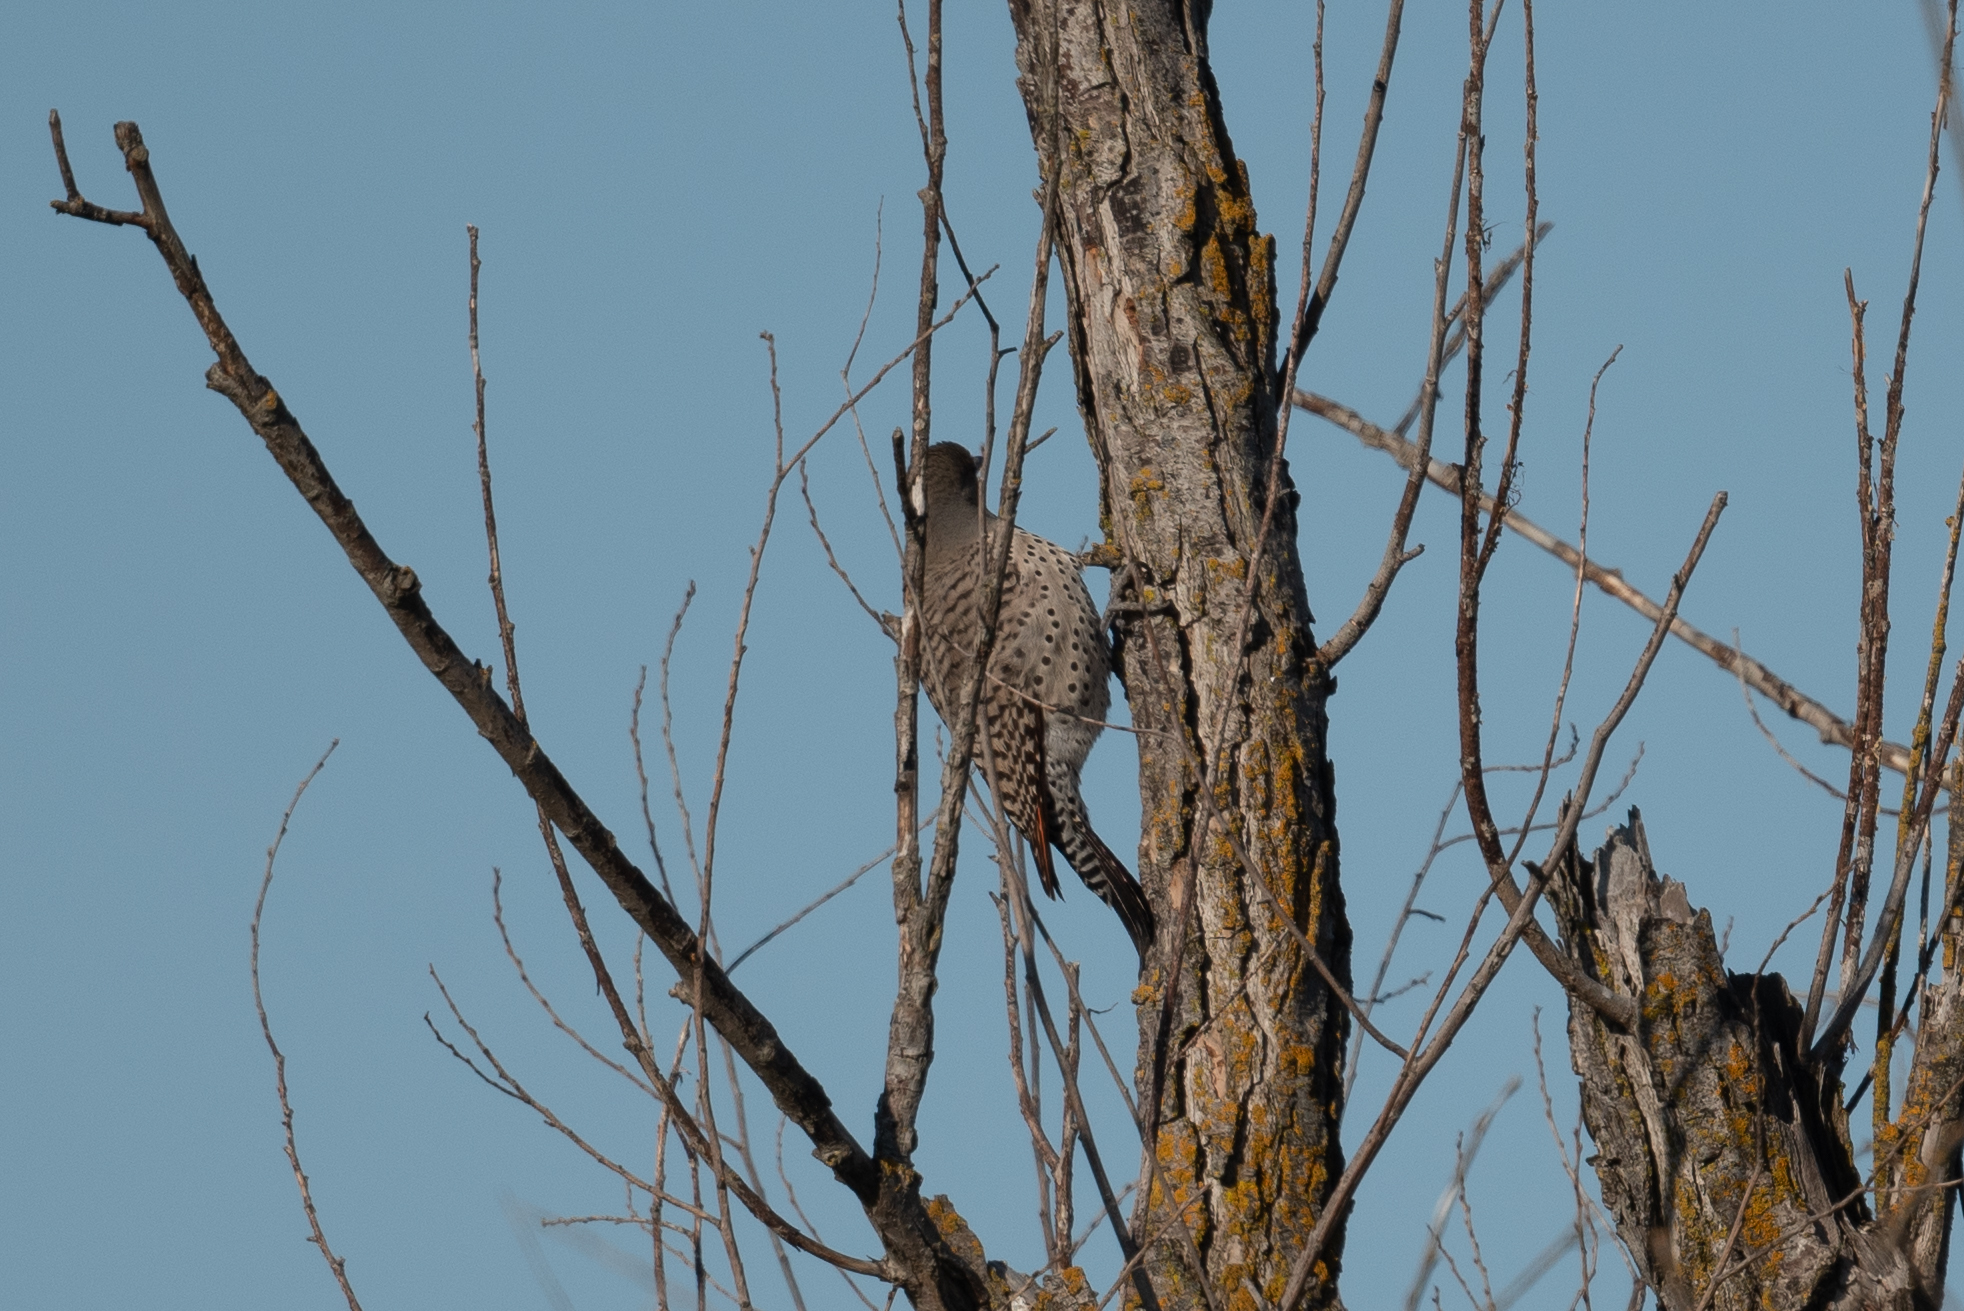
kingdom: Animalia
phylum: Chordata
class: Aves
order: Piciformes
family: Picidae
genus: Colaptes
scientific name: Colaptes auratus
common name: Northern flicker
